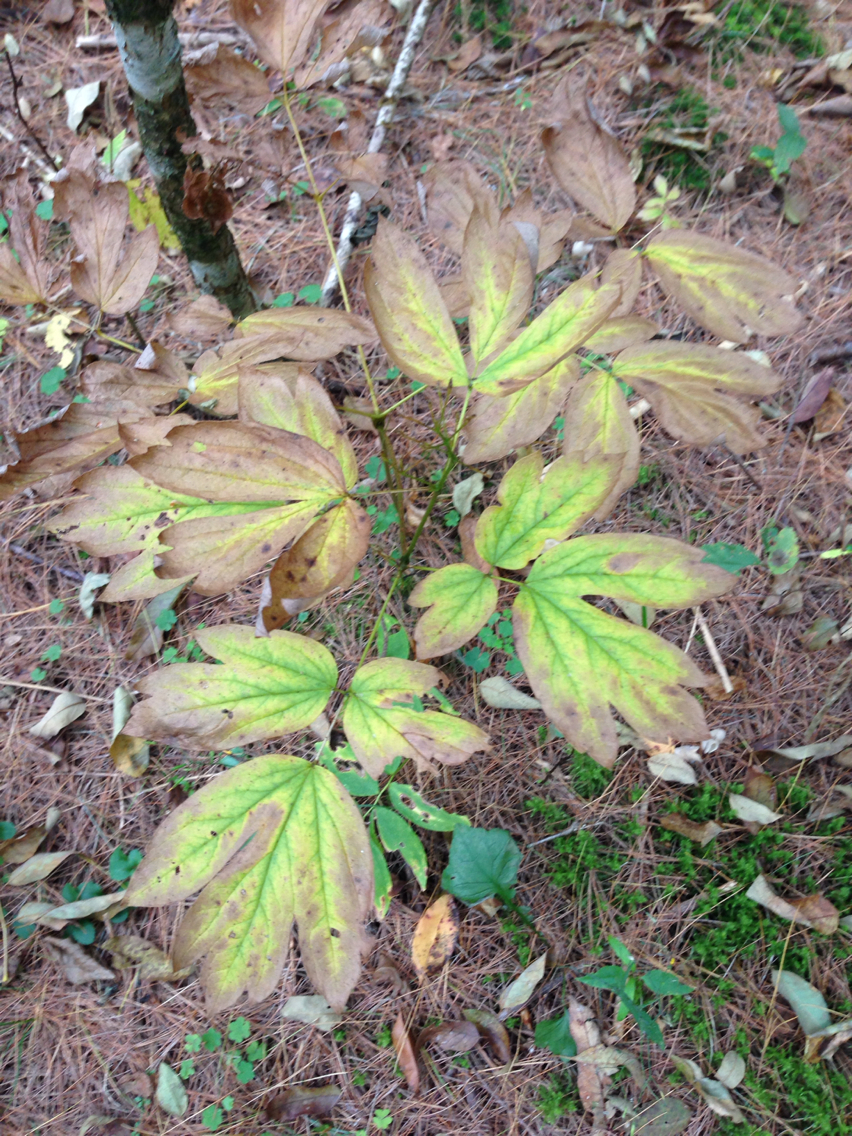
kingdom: Plantae
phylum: Tracheophyta
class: Magnoliopsida
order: Ranunculales
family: Berberidaceae
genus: Caulophyllum
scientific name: Caulophyllum thalictroides
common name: Blue cohosh
